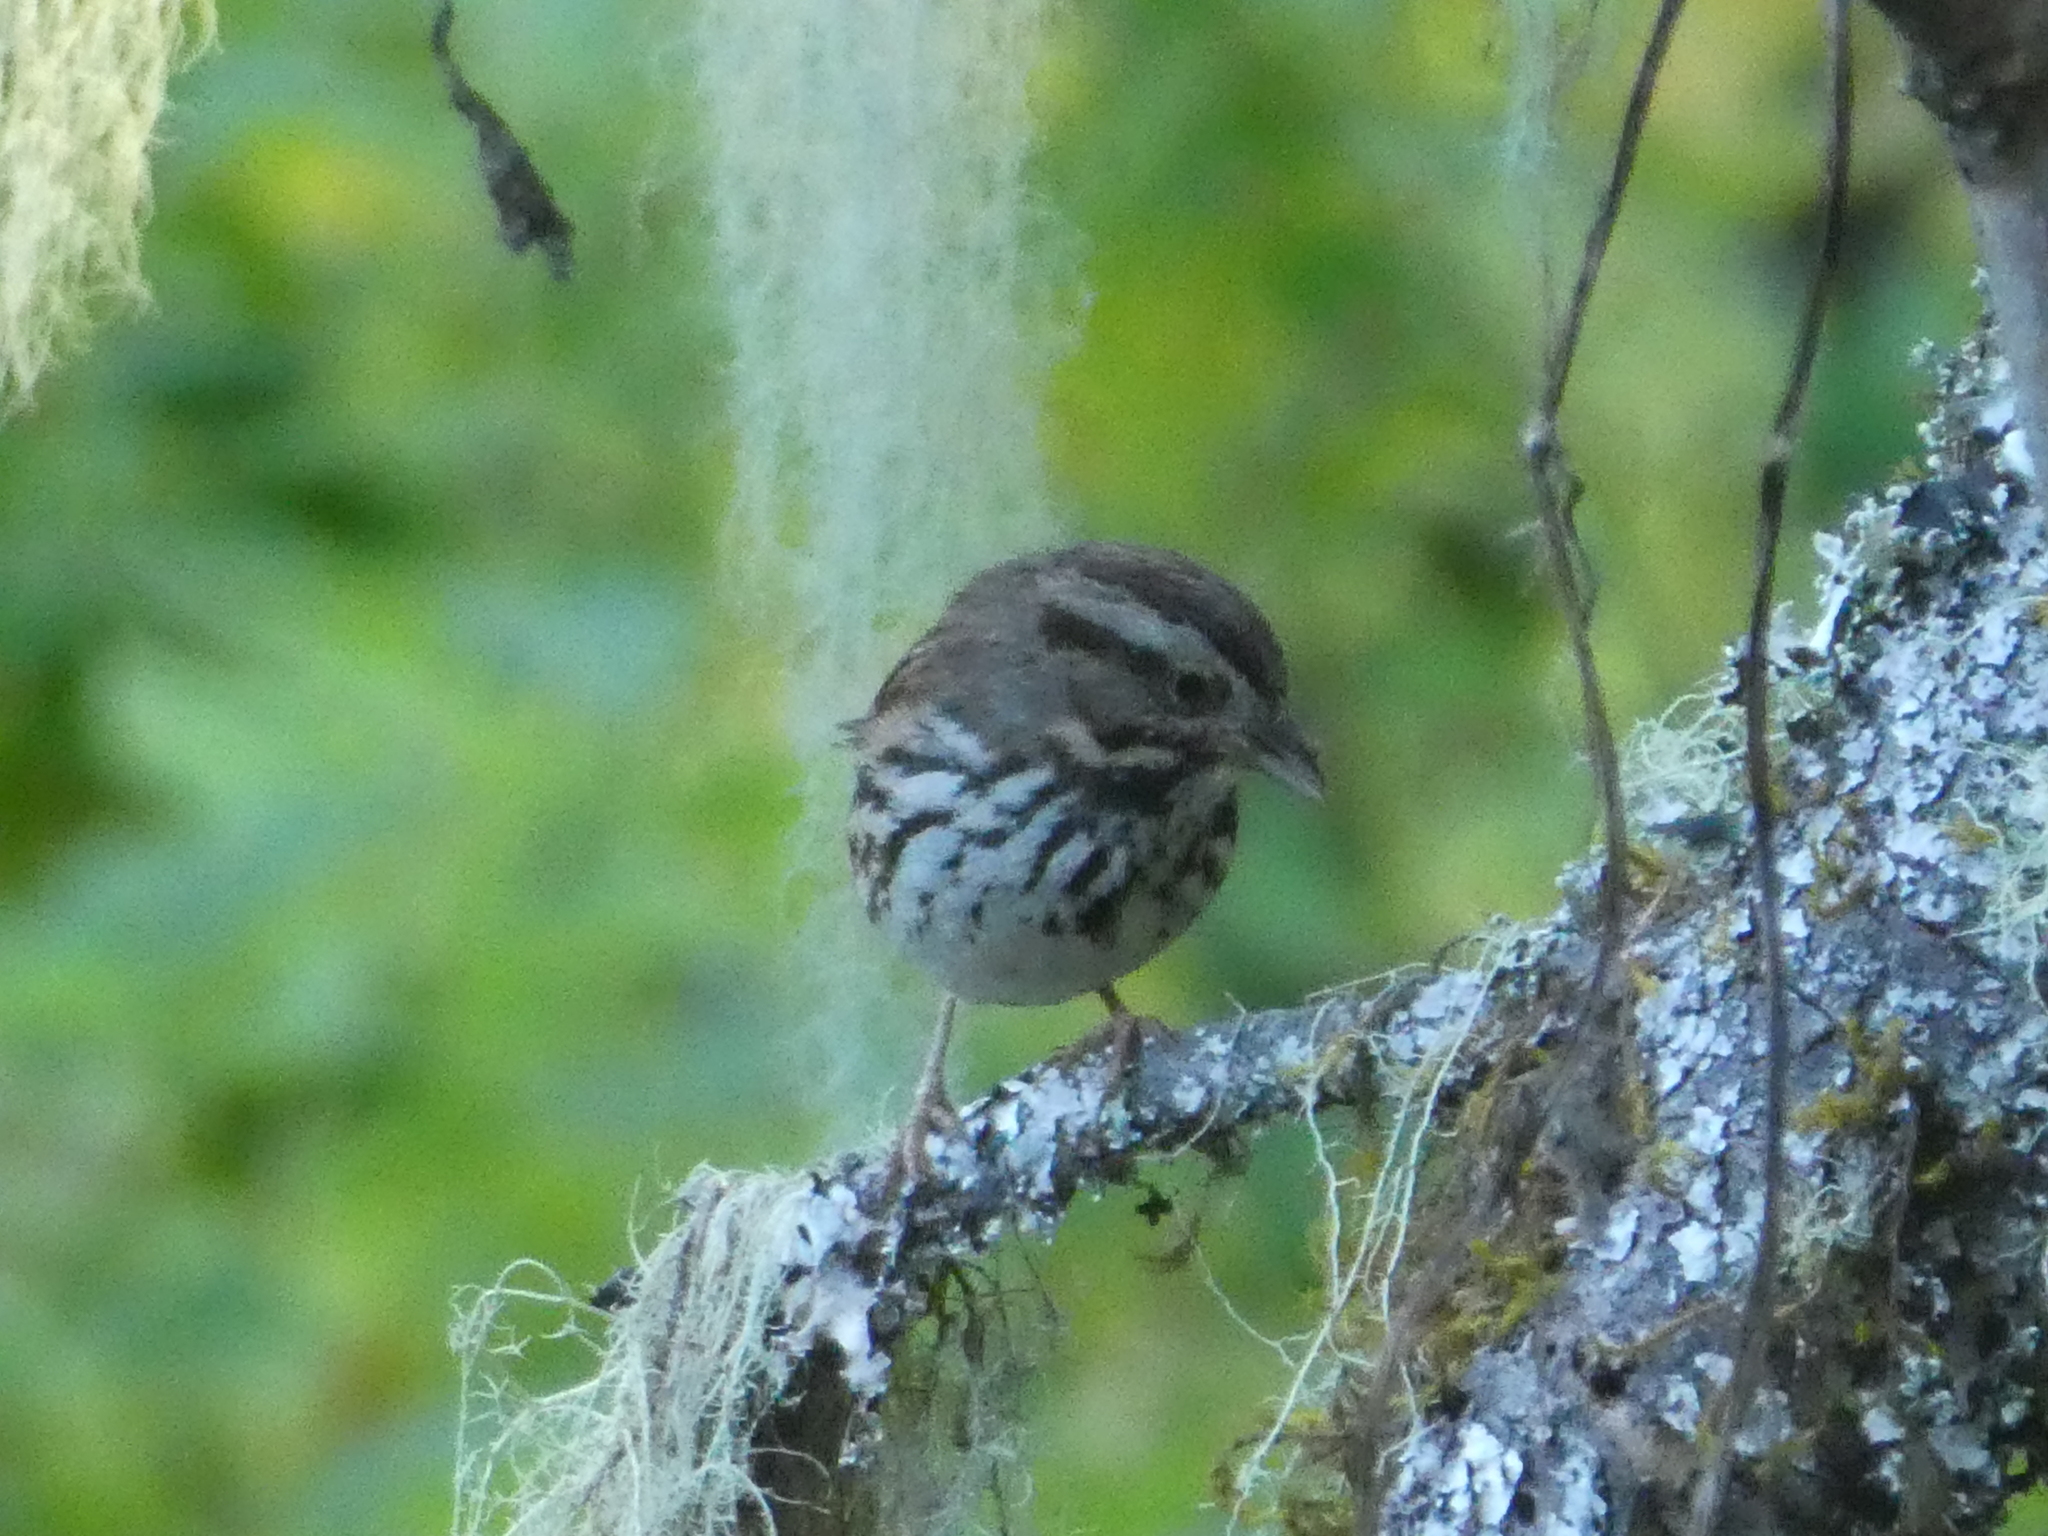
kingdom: Animalia
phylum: Chordata
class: Aves
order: Passeriformes
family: Passerellidae
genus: Melospiza
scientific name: Melospiza melodia
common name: Song sparrow
